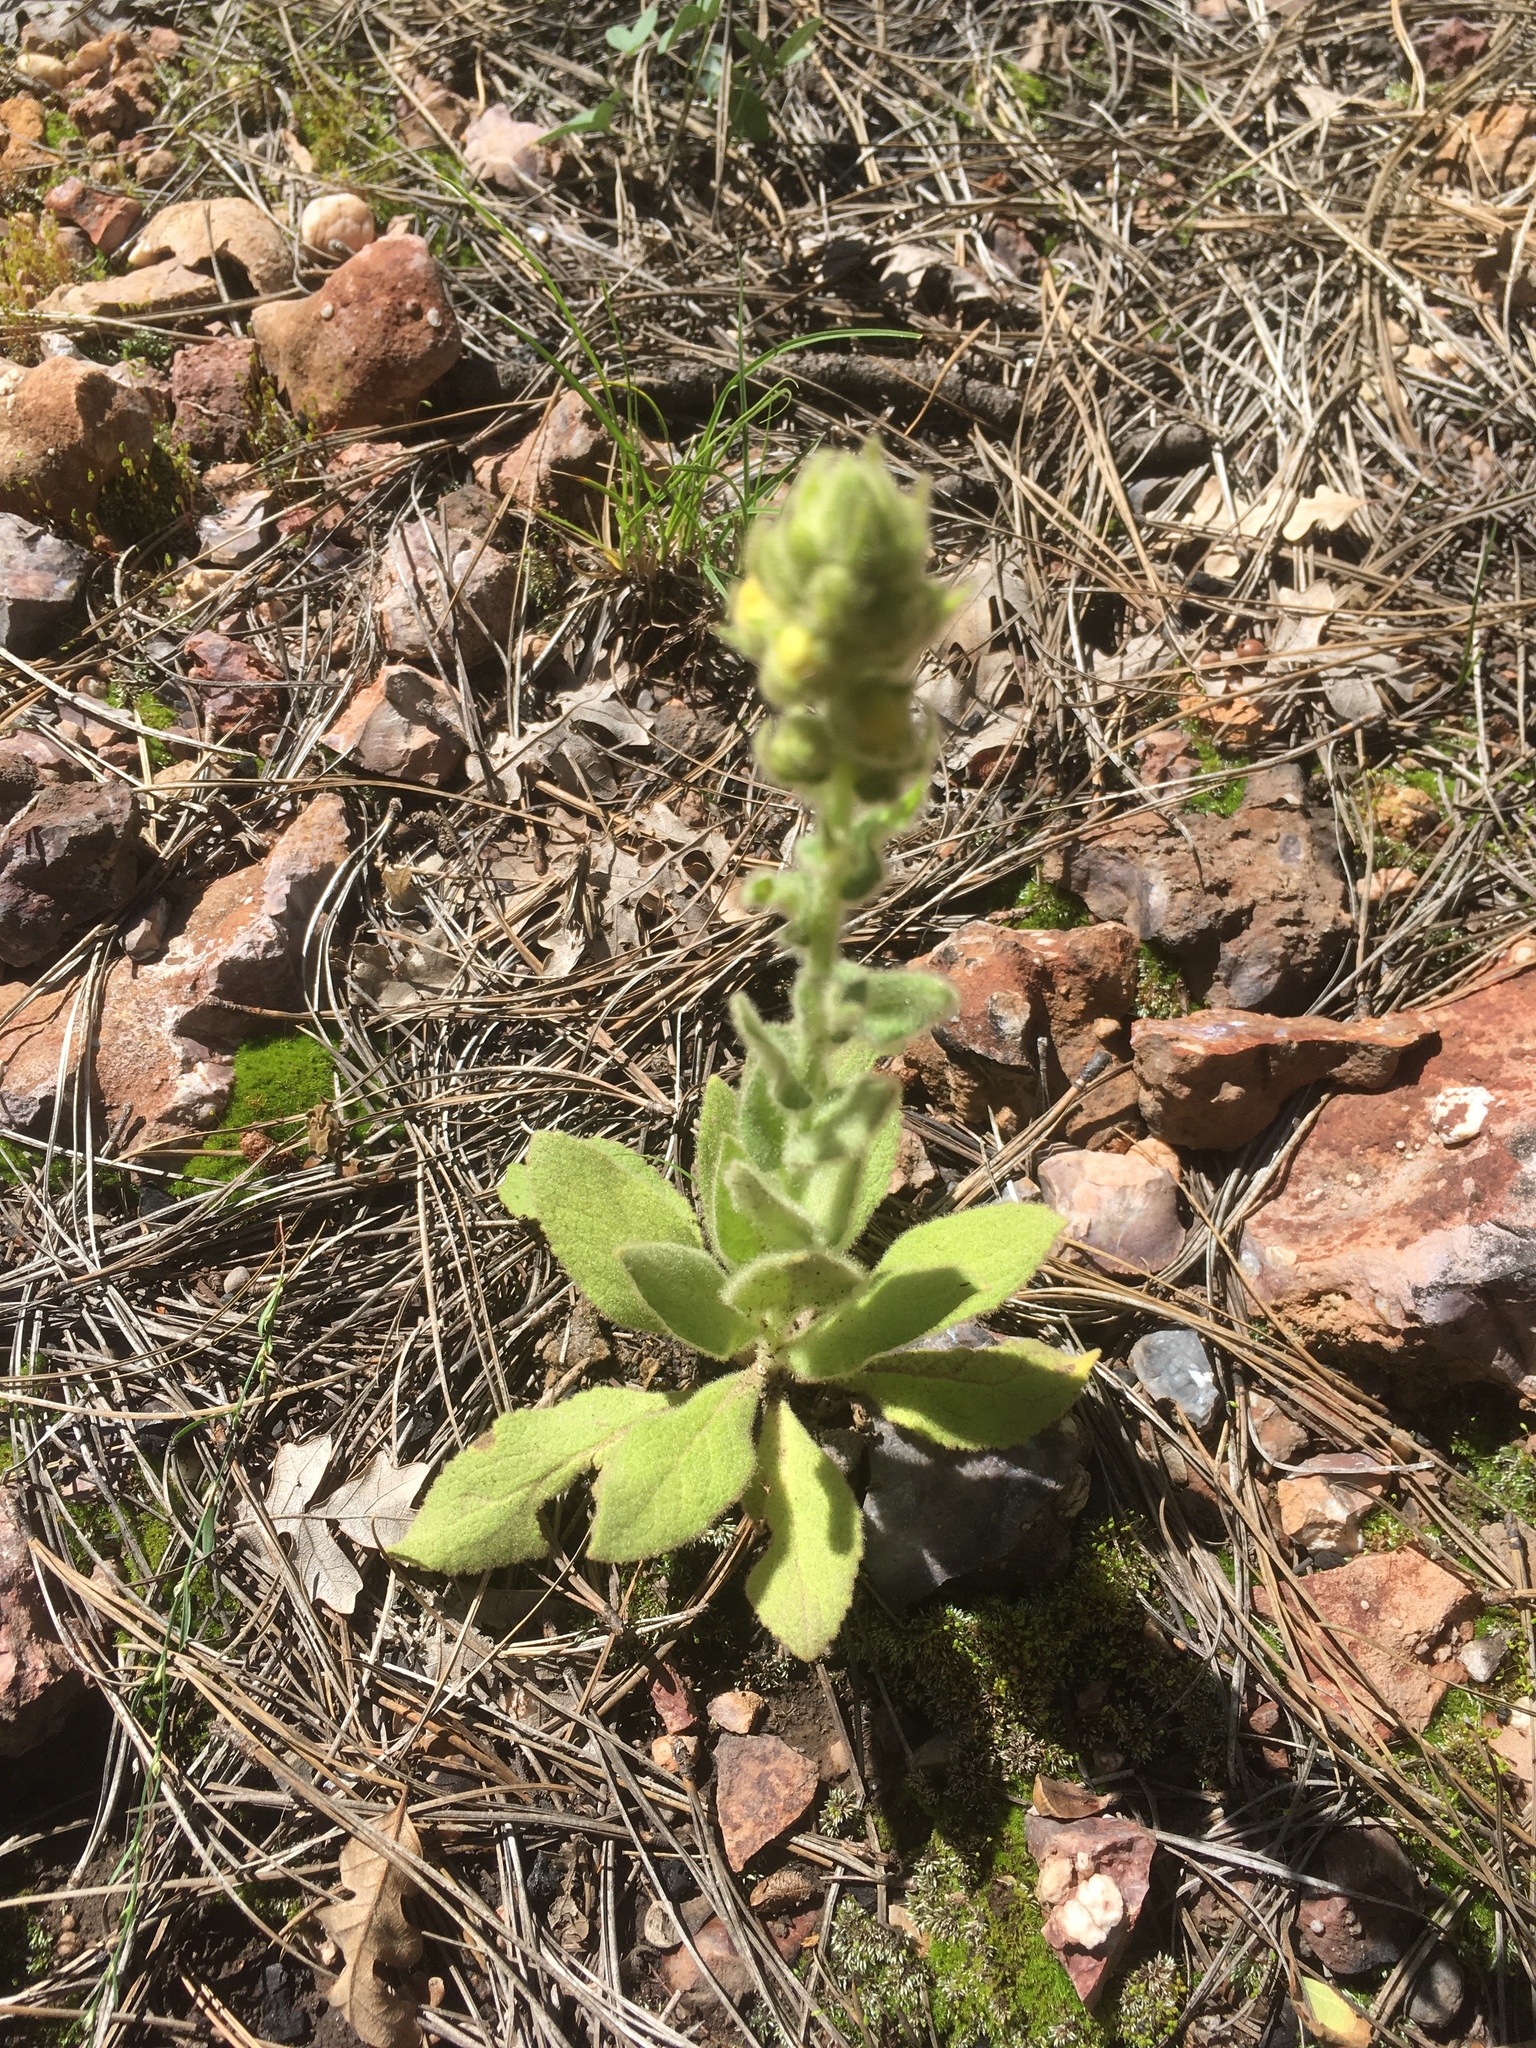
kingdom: Plantae
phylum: Tracheophyta
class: Magnoliopsida
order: Lamiales
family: Scrophulariaceae
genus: Verbascum
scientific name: Verbascum thapsus
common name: Common mullein
